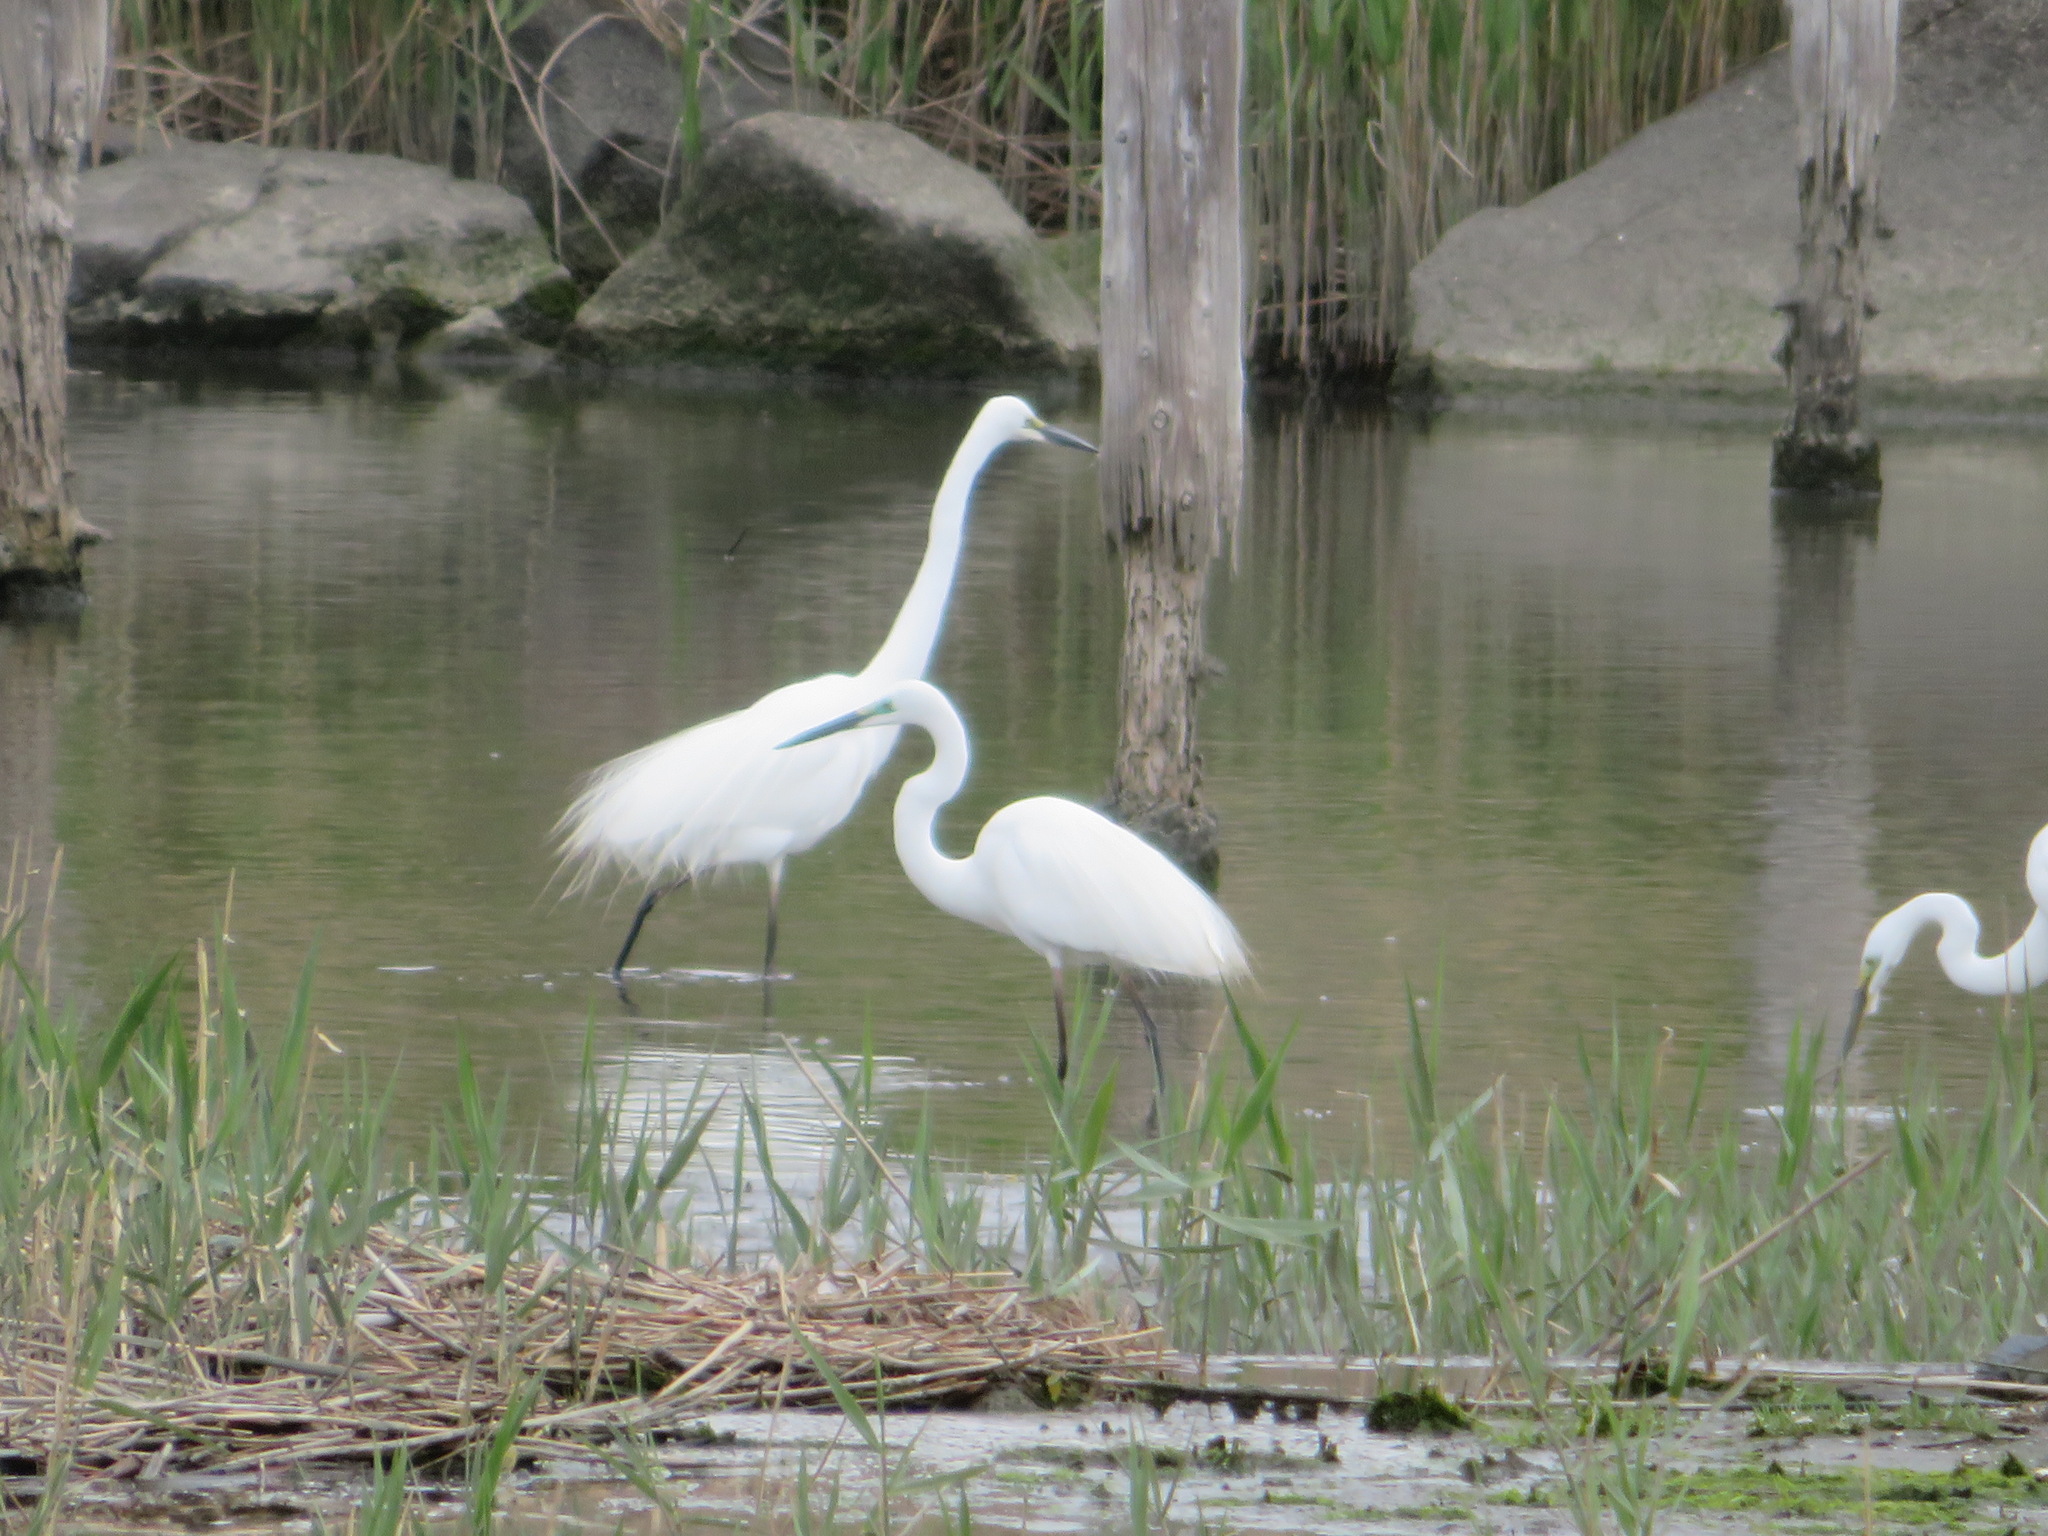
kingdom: Animalia
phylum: Chordata
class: Aves
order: Pelecaniformes
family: Ardeidae
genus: Ardea
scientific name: Ardea alba
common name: Great egret
